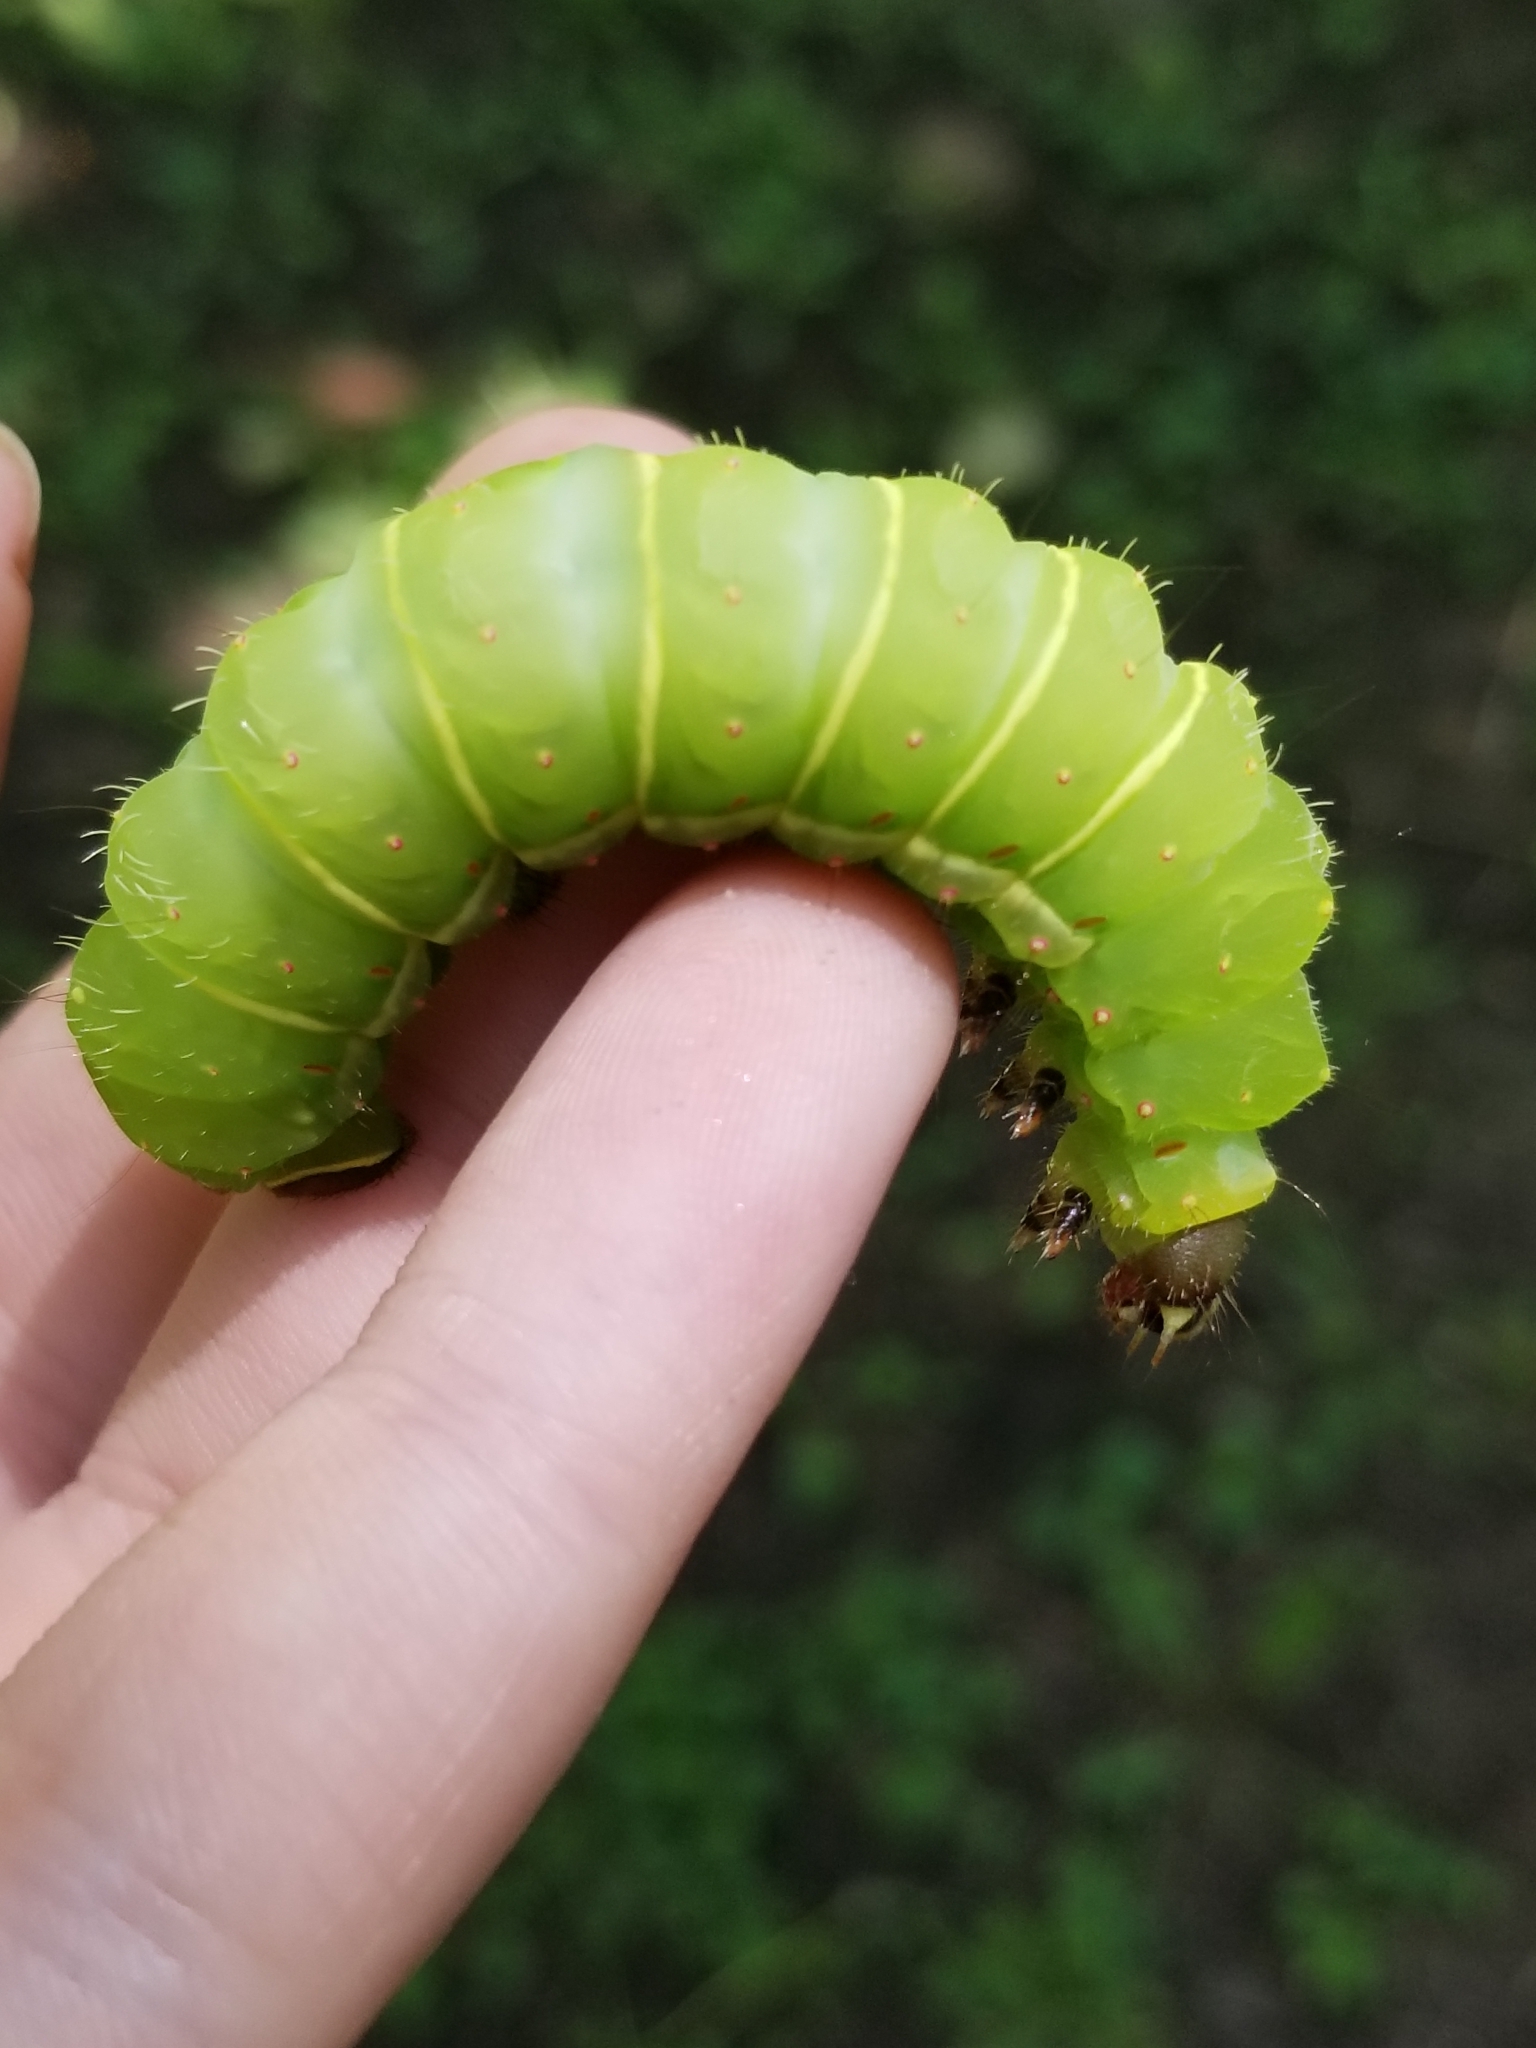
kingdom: Animalia
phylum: Arthropoda
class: Insecta
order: Lepidoptera
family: Saturniidae
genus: Actias
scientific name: Actias luna
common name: Luna moth
